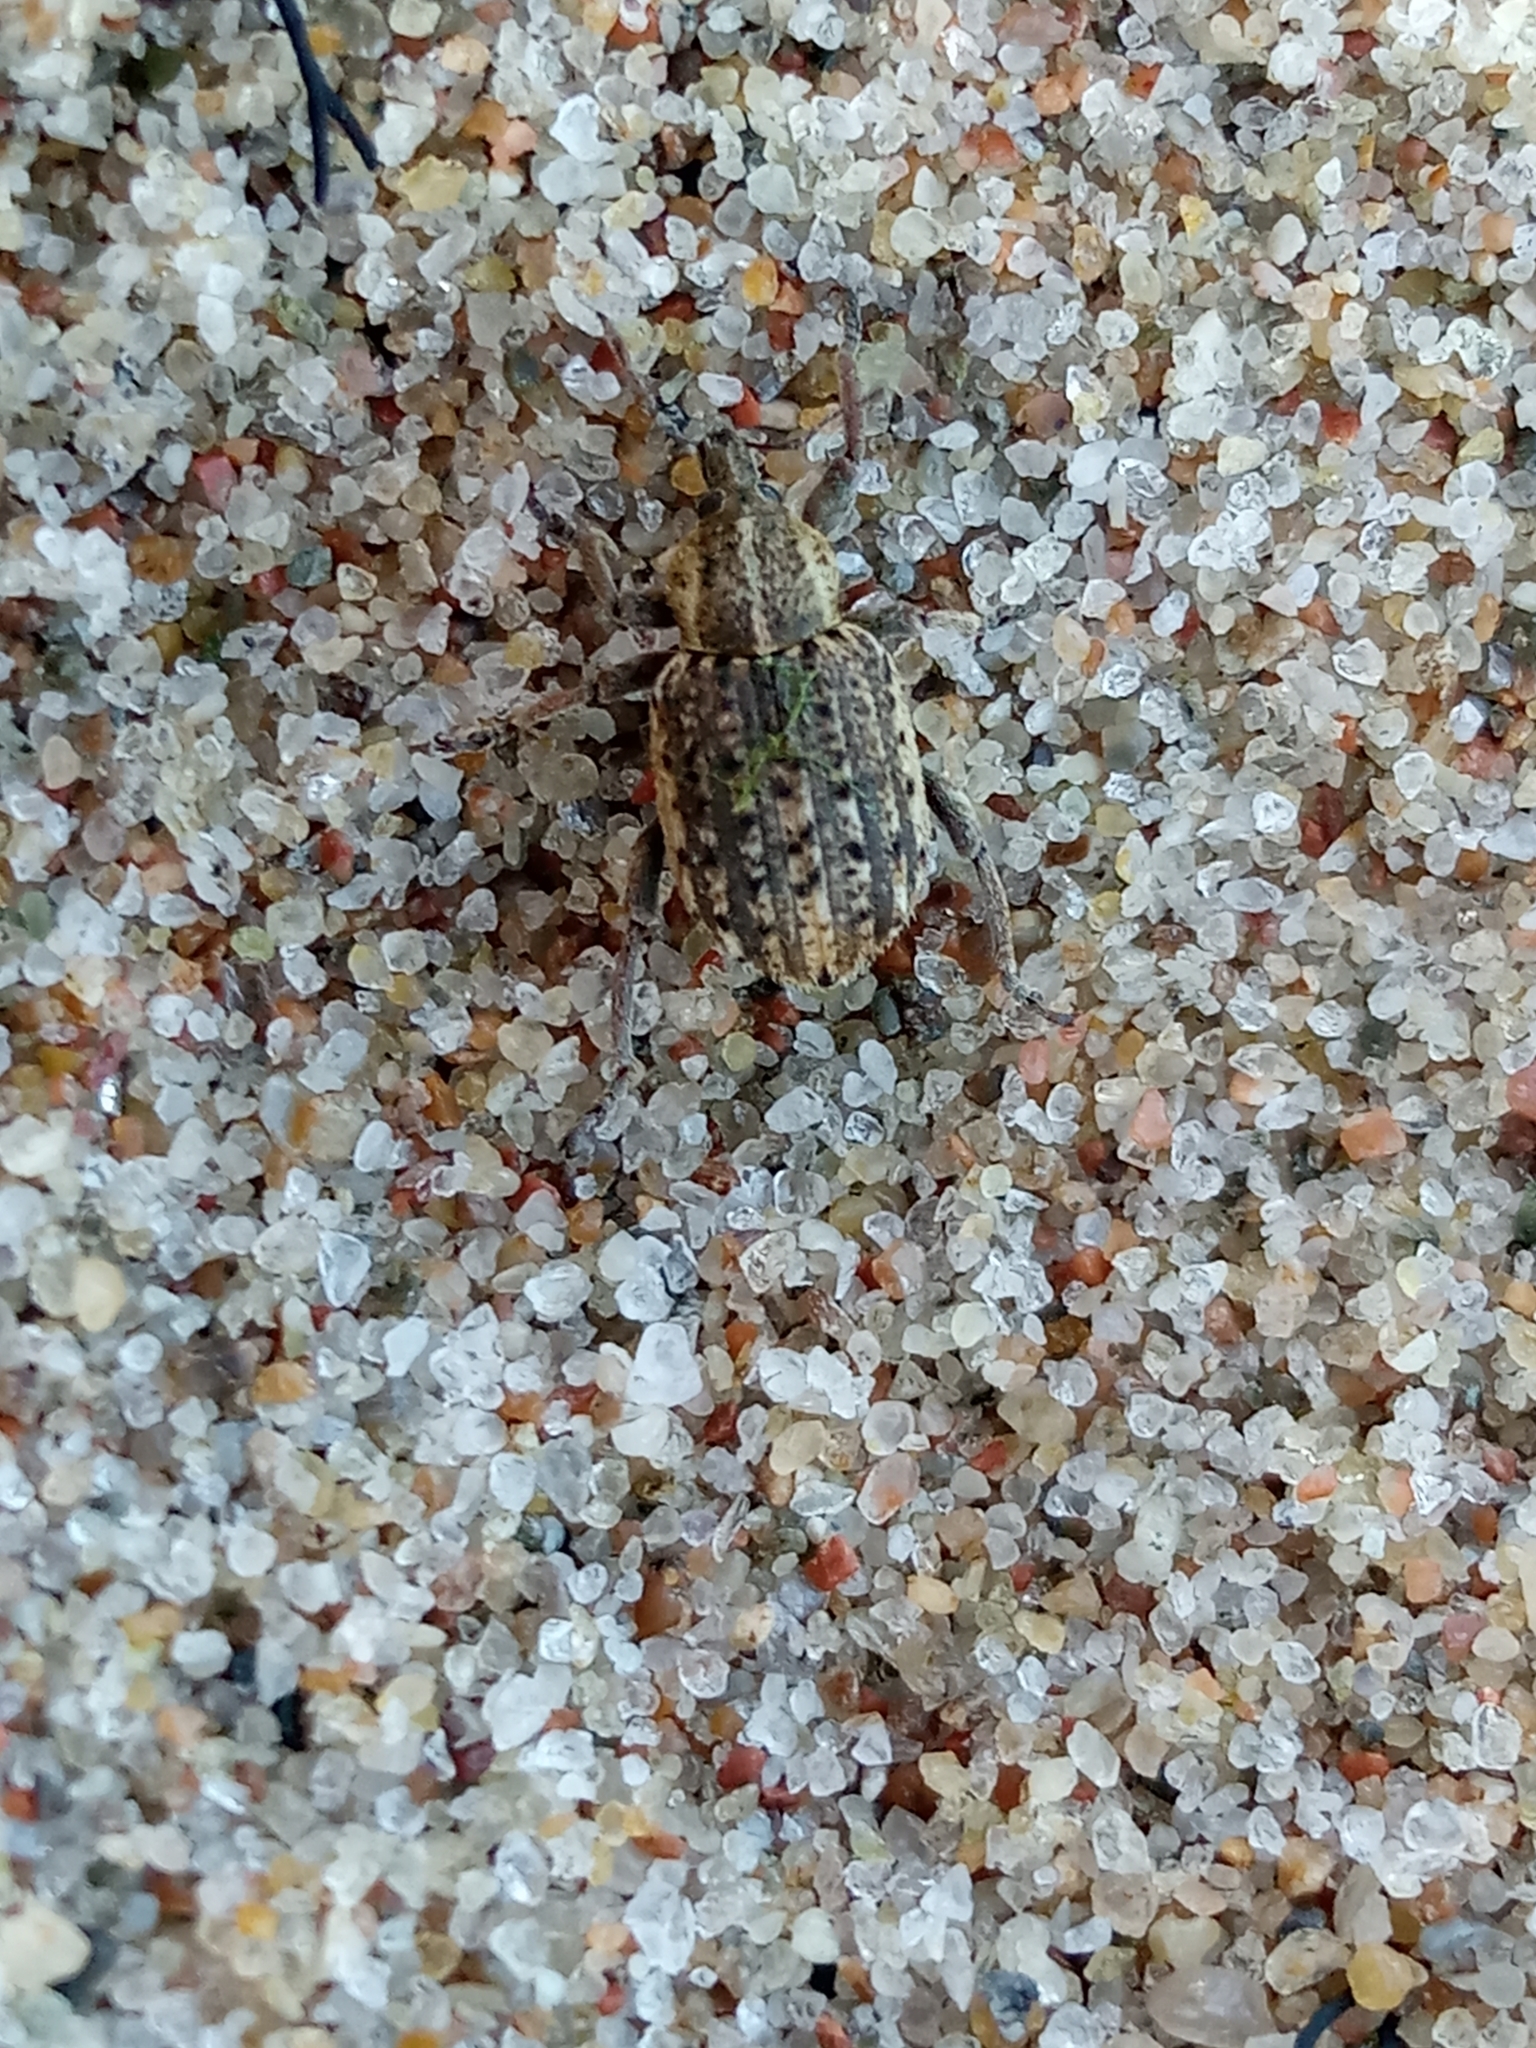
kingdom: Animalia
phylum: Arthropoda
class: Insecta
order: Coleoptera
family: Curculionidae
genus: Brachypera
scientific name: Brachypera zoilus
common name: Clover leaf weevil
